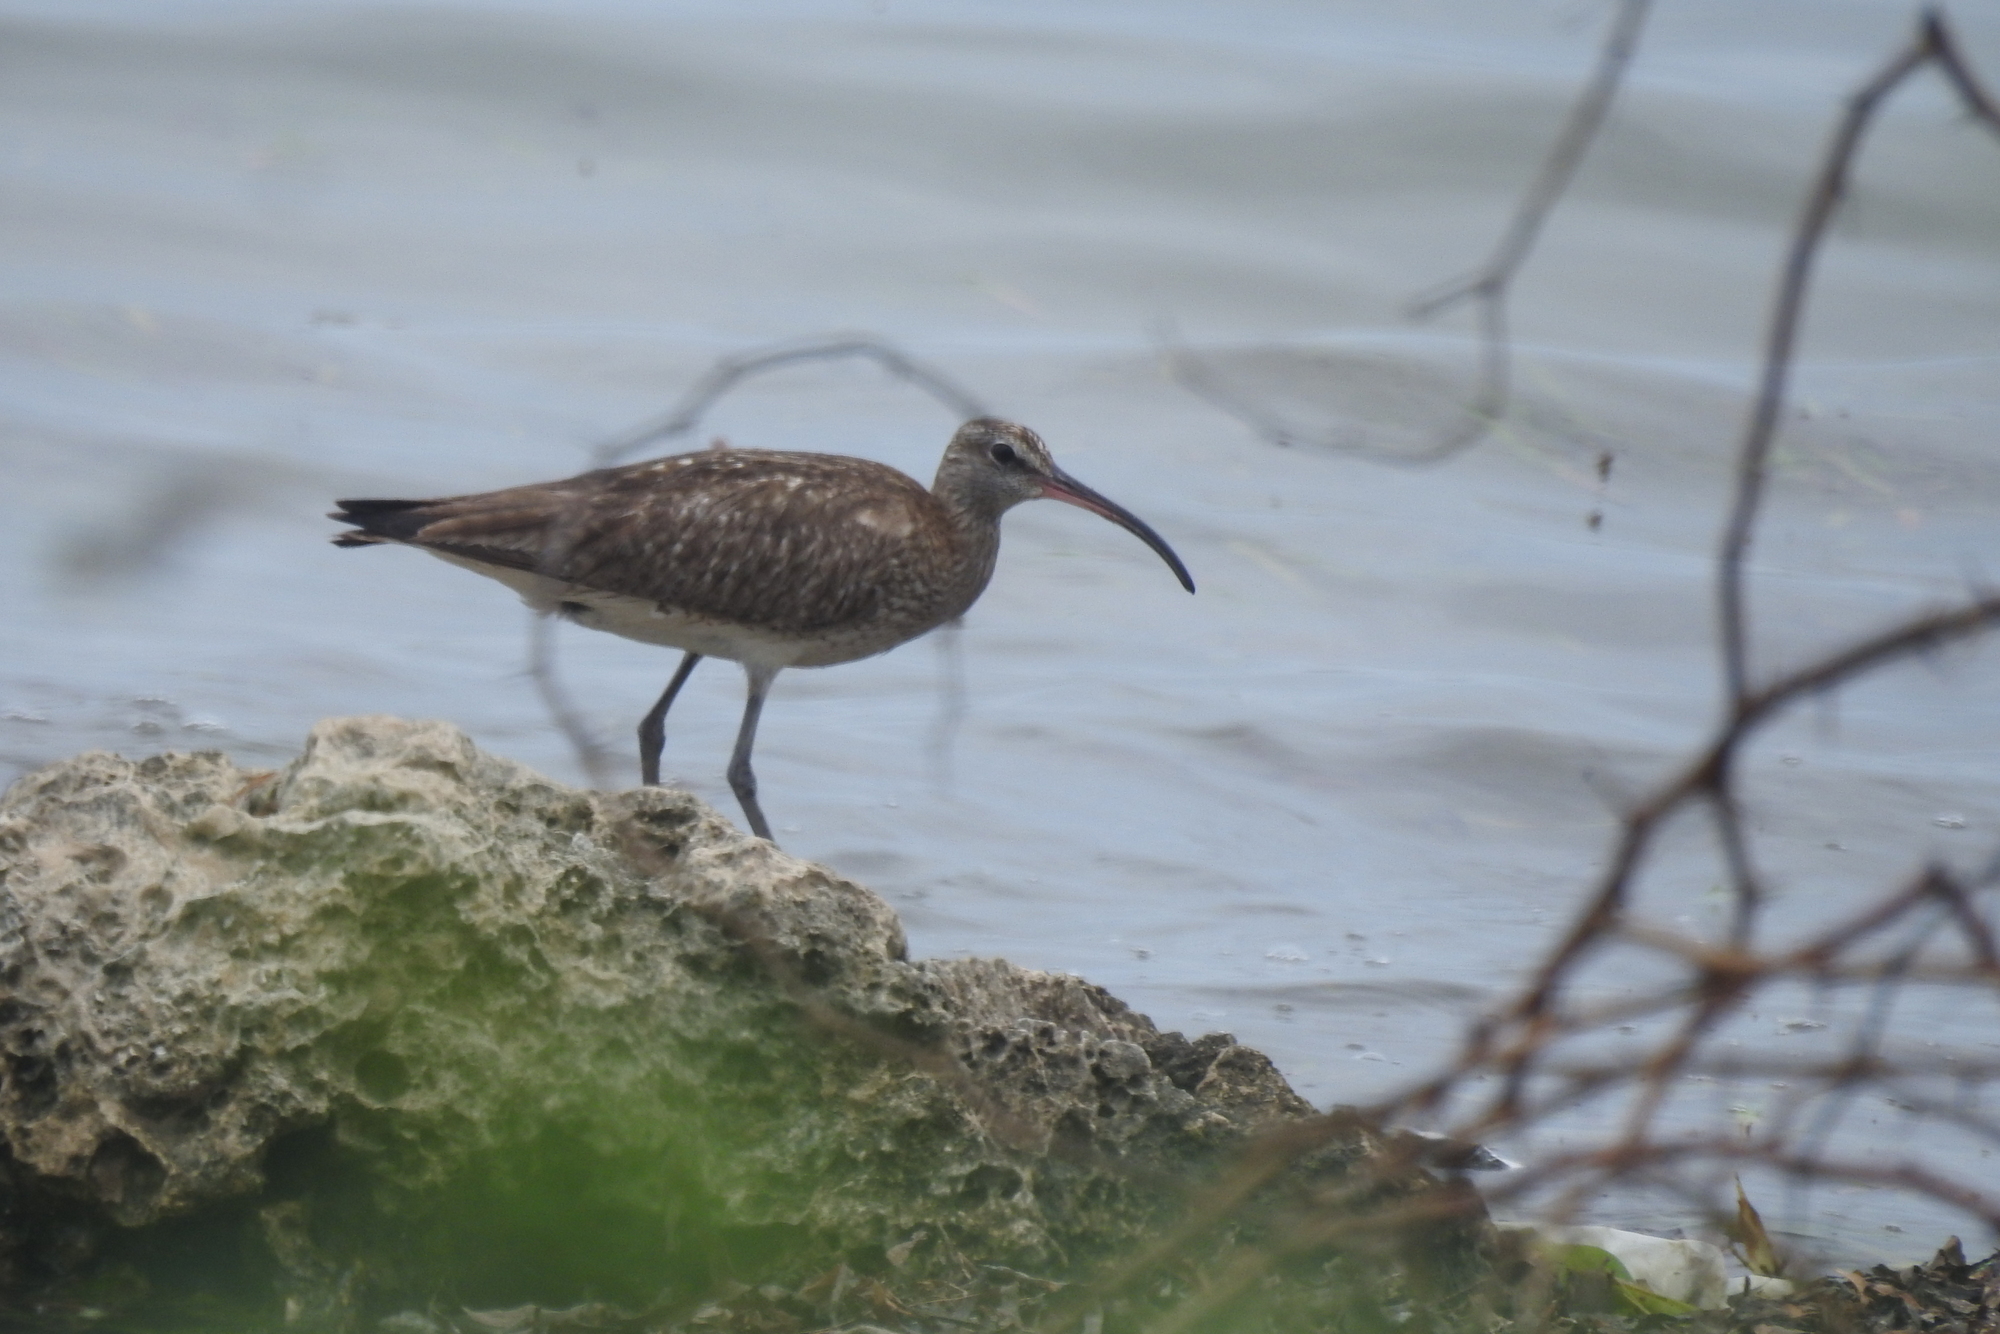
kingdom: Animalia
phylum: Chordata
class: Aves
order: Charadriiformes
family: Scolopacidae
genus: Numenius
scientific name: Numenius phaeopus
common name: Whimbrel
